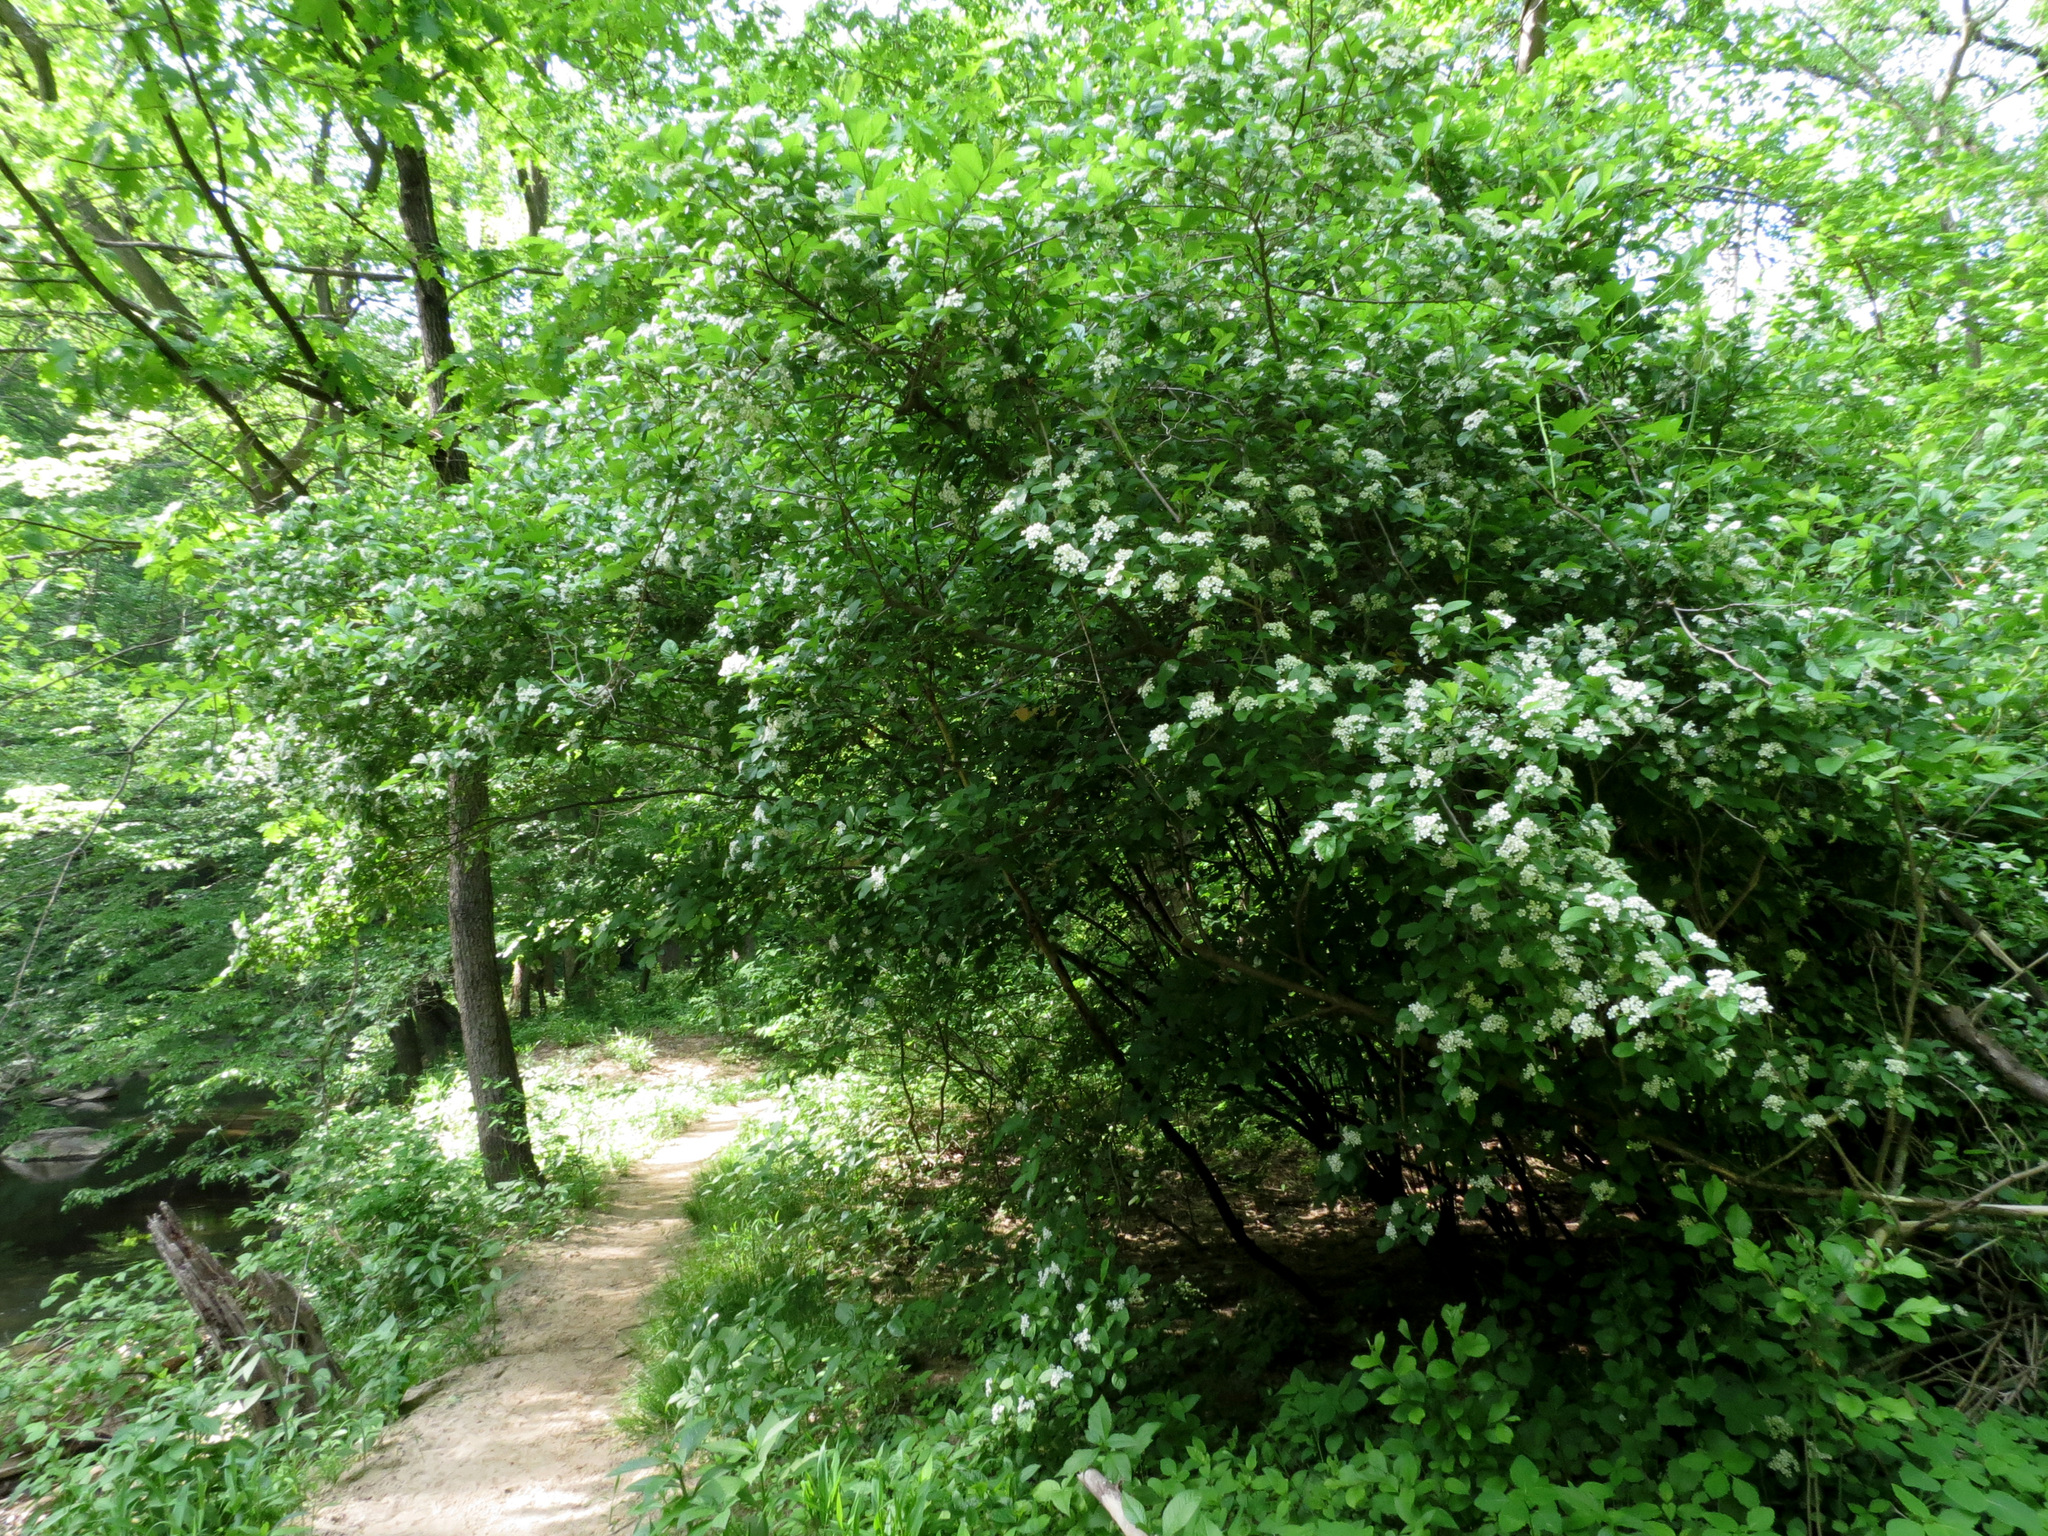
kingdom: Plantae
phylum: Tracheophyta
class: Magnoliopsida
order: Rosales
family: Rosaceae
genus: Pourthiaea
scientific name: Pourthiaea villosa
